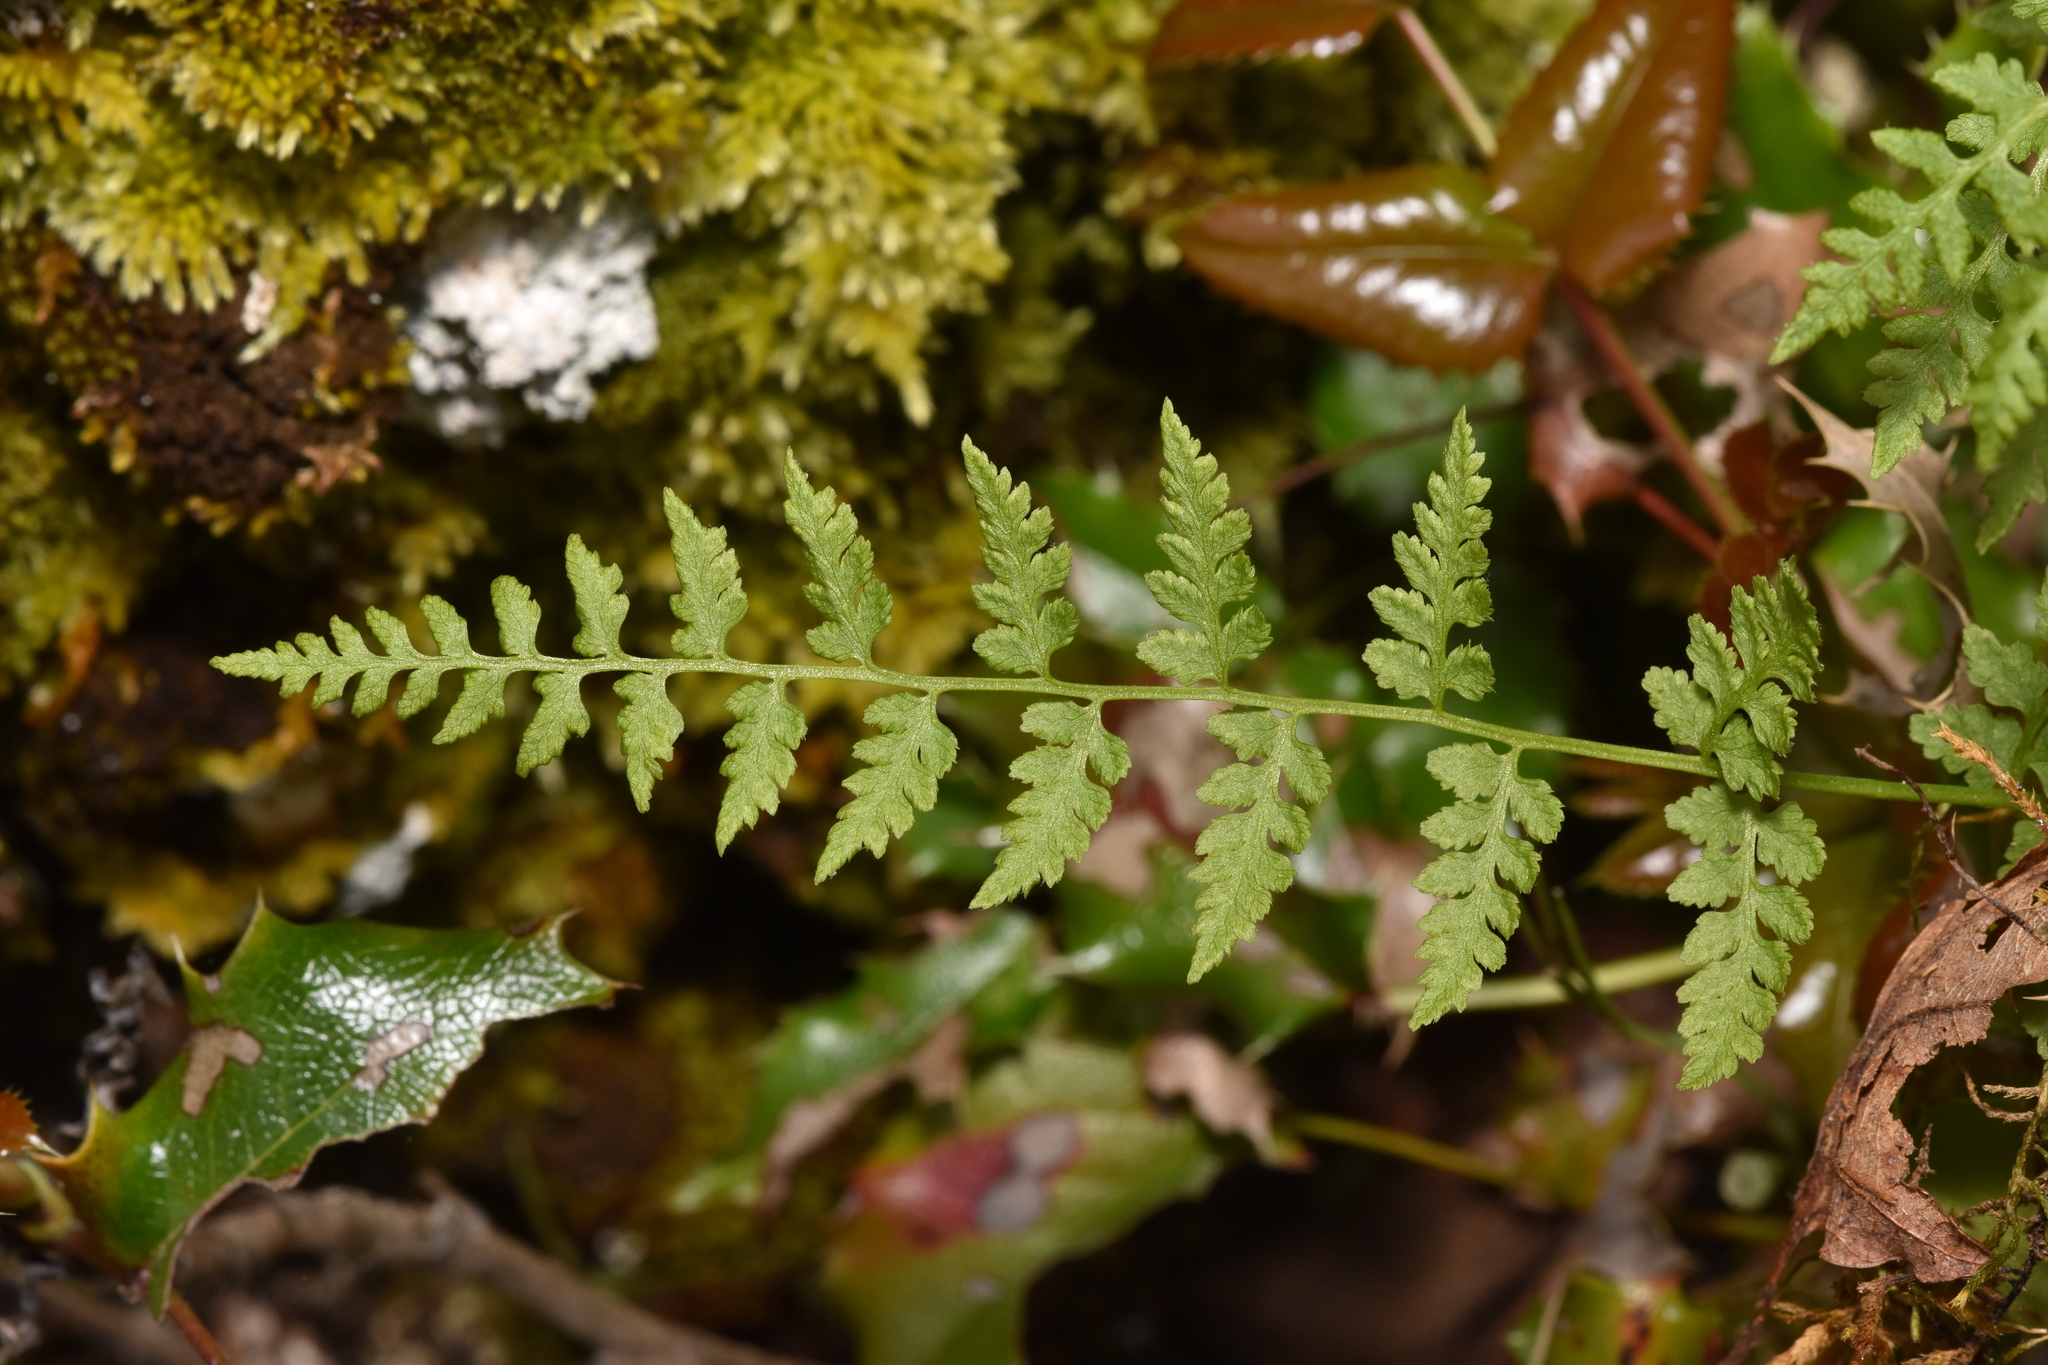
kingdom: Plantae
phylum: Tracheophyta
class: Polypodiopsida
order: Polypodiales
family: Cystopteridaceae
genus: Cystopteris
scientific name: Cystopteris fragilis
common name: Brittle bladder fern
